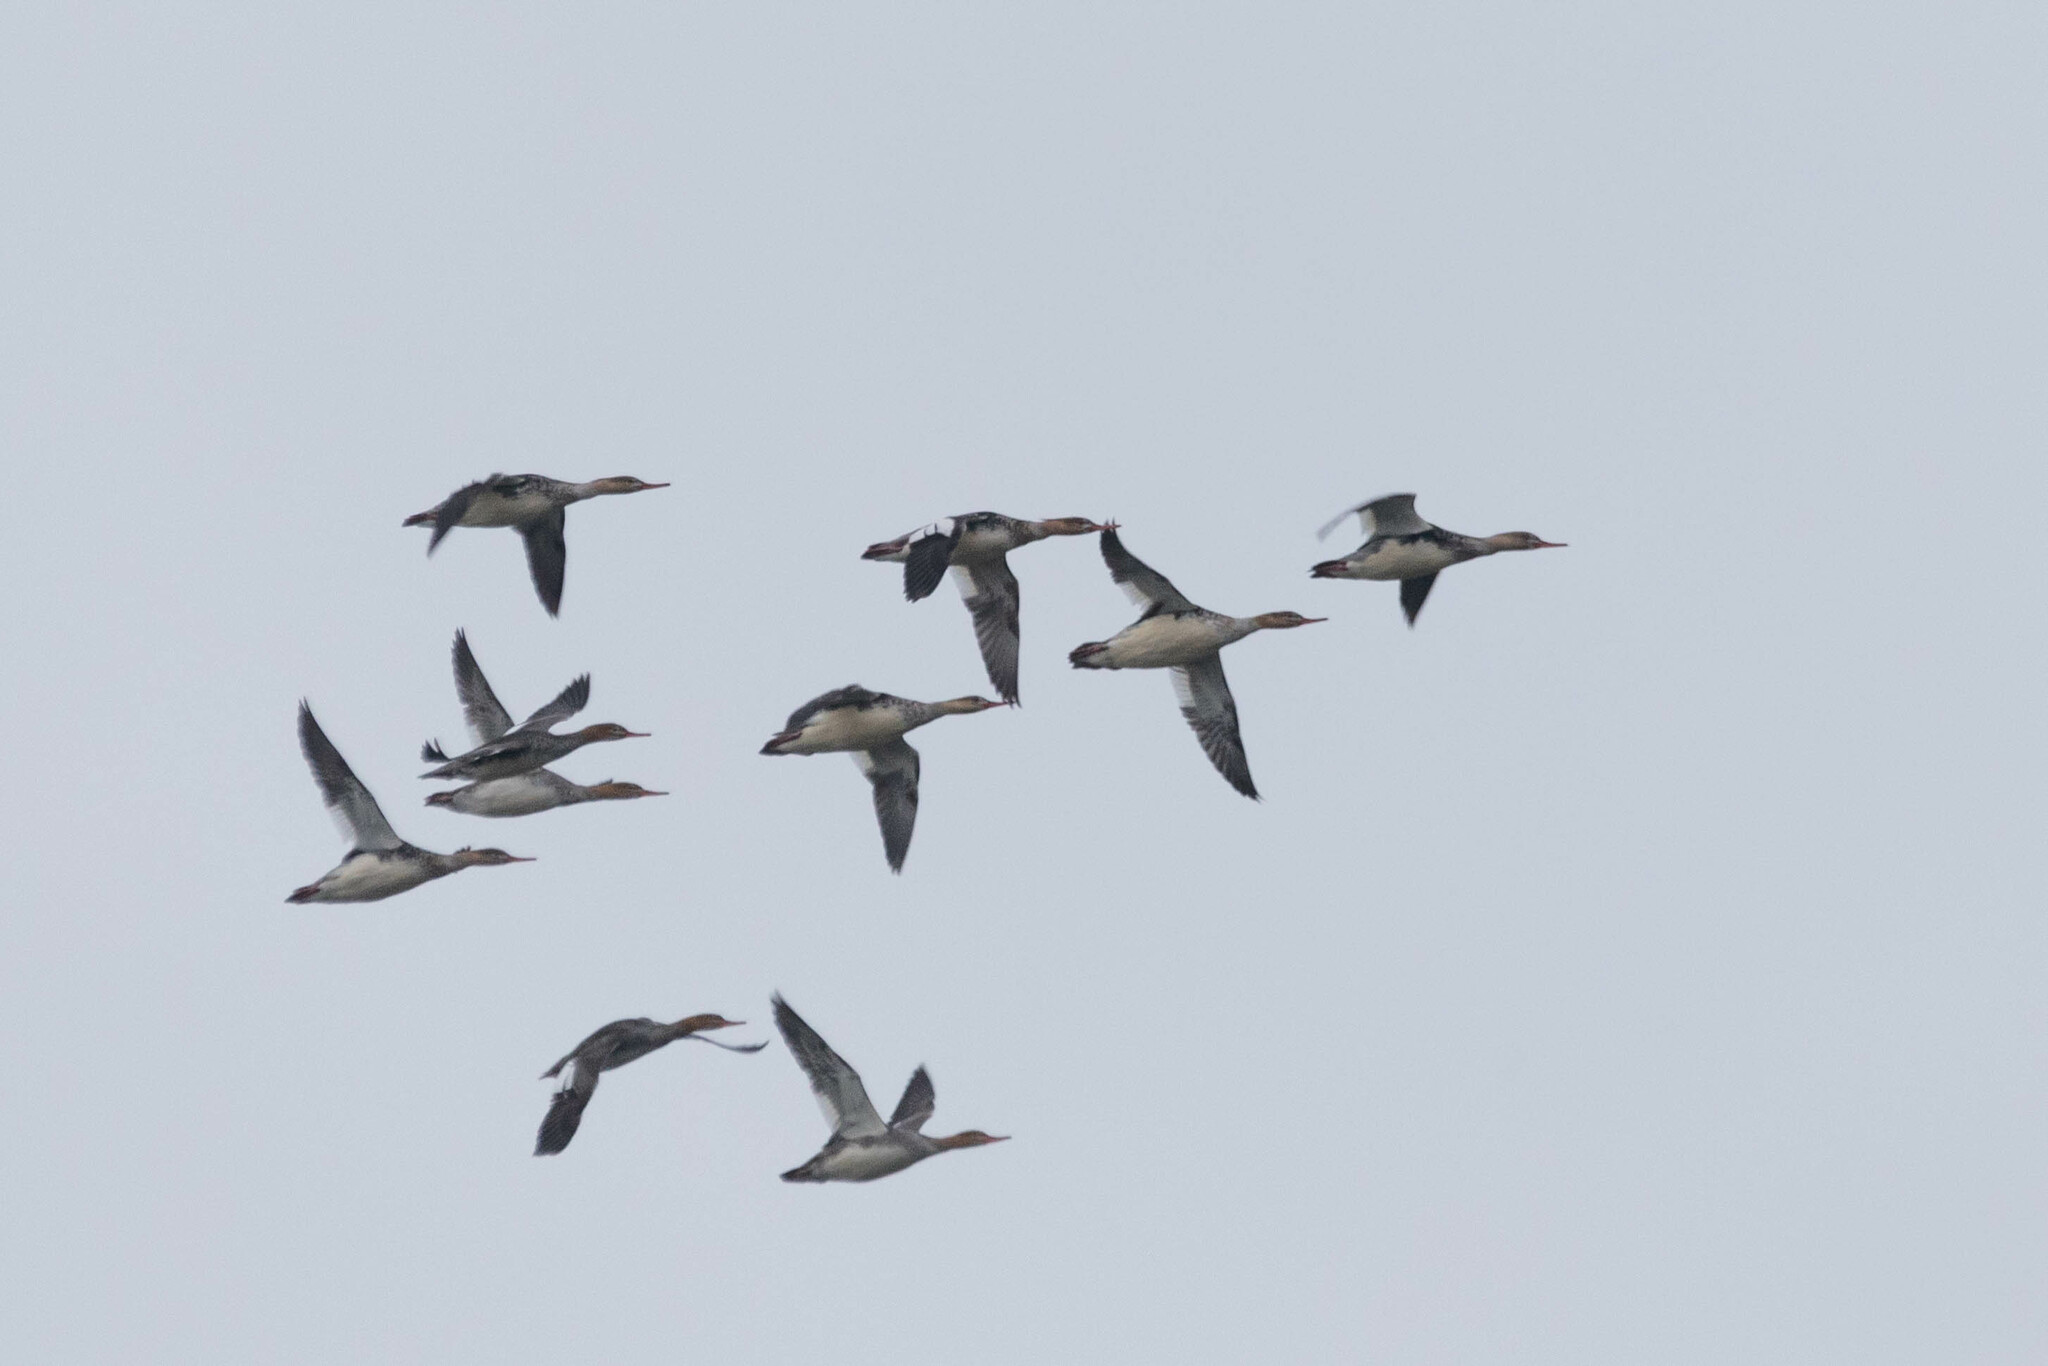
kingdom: Animalia
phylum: Chordata
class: Aves
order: Anseriformes
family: Anatidae
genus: Mergus
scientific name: Mergus serrator
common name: Red-breasted merganser
